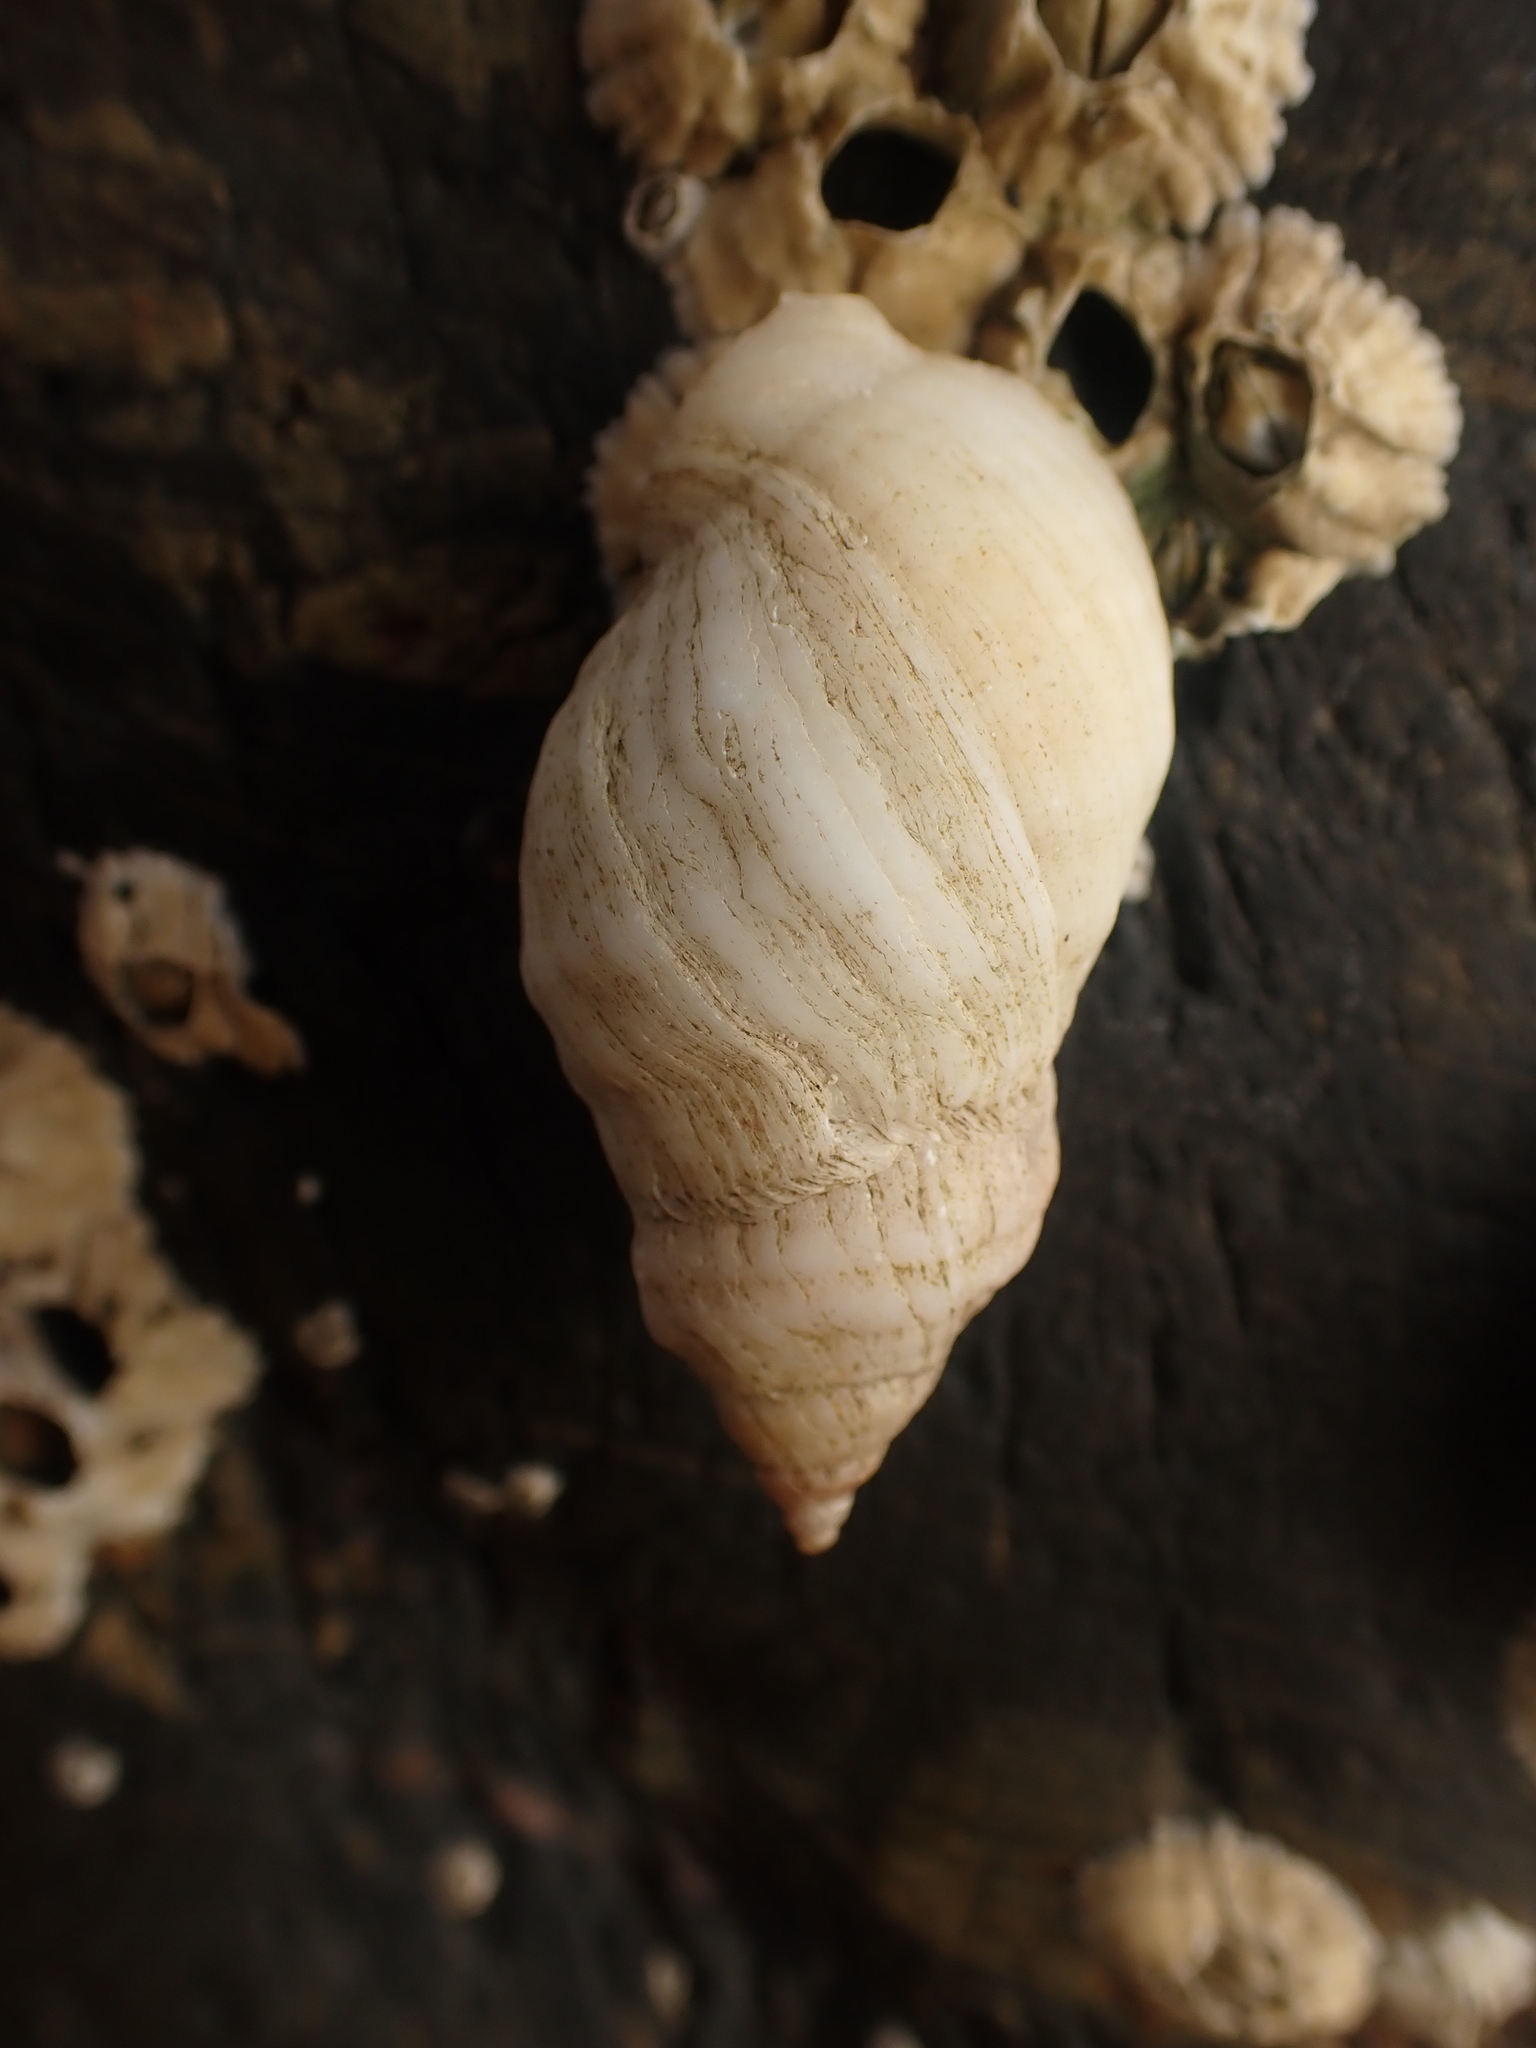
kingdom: Animalia
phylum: Mollusca
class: Gastropoda
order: Neogastropoda
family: Muricidae
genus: Nucella
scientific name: Nucella lapillus
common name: Dog whelk
